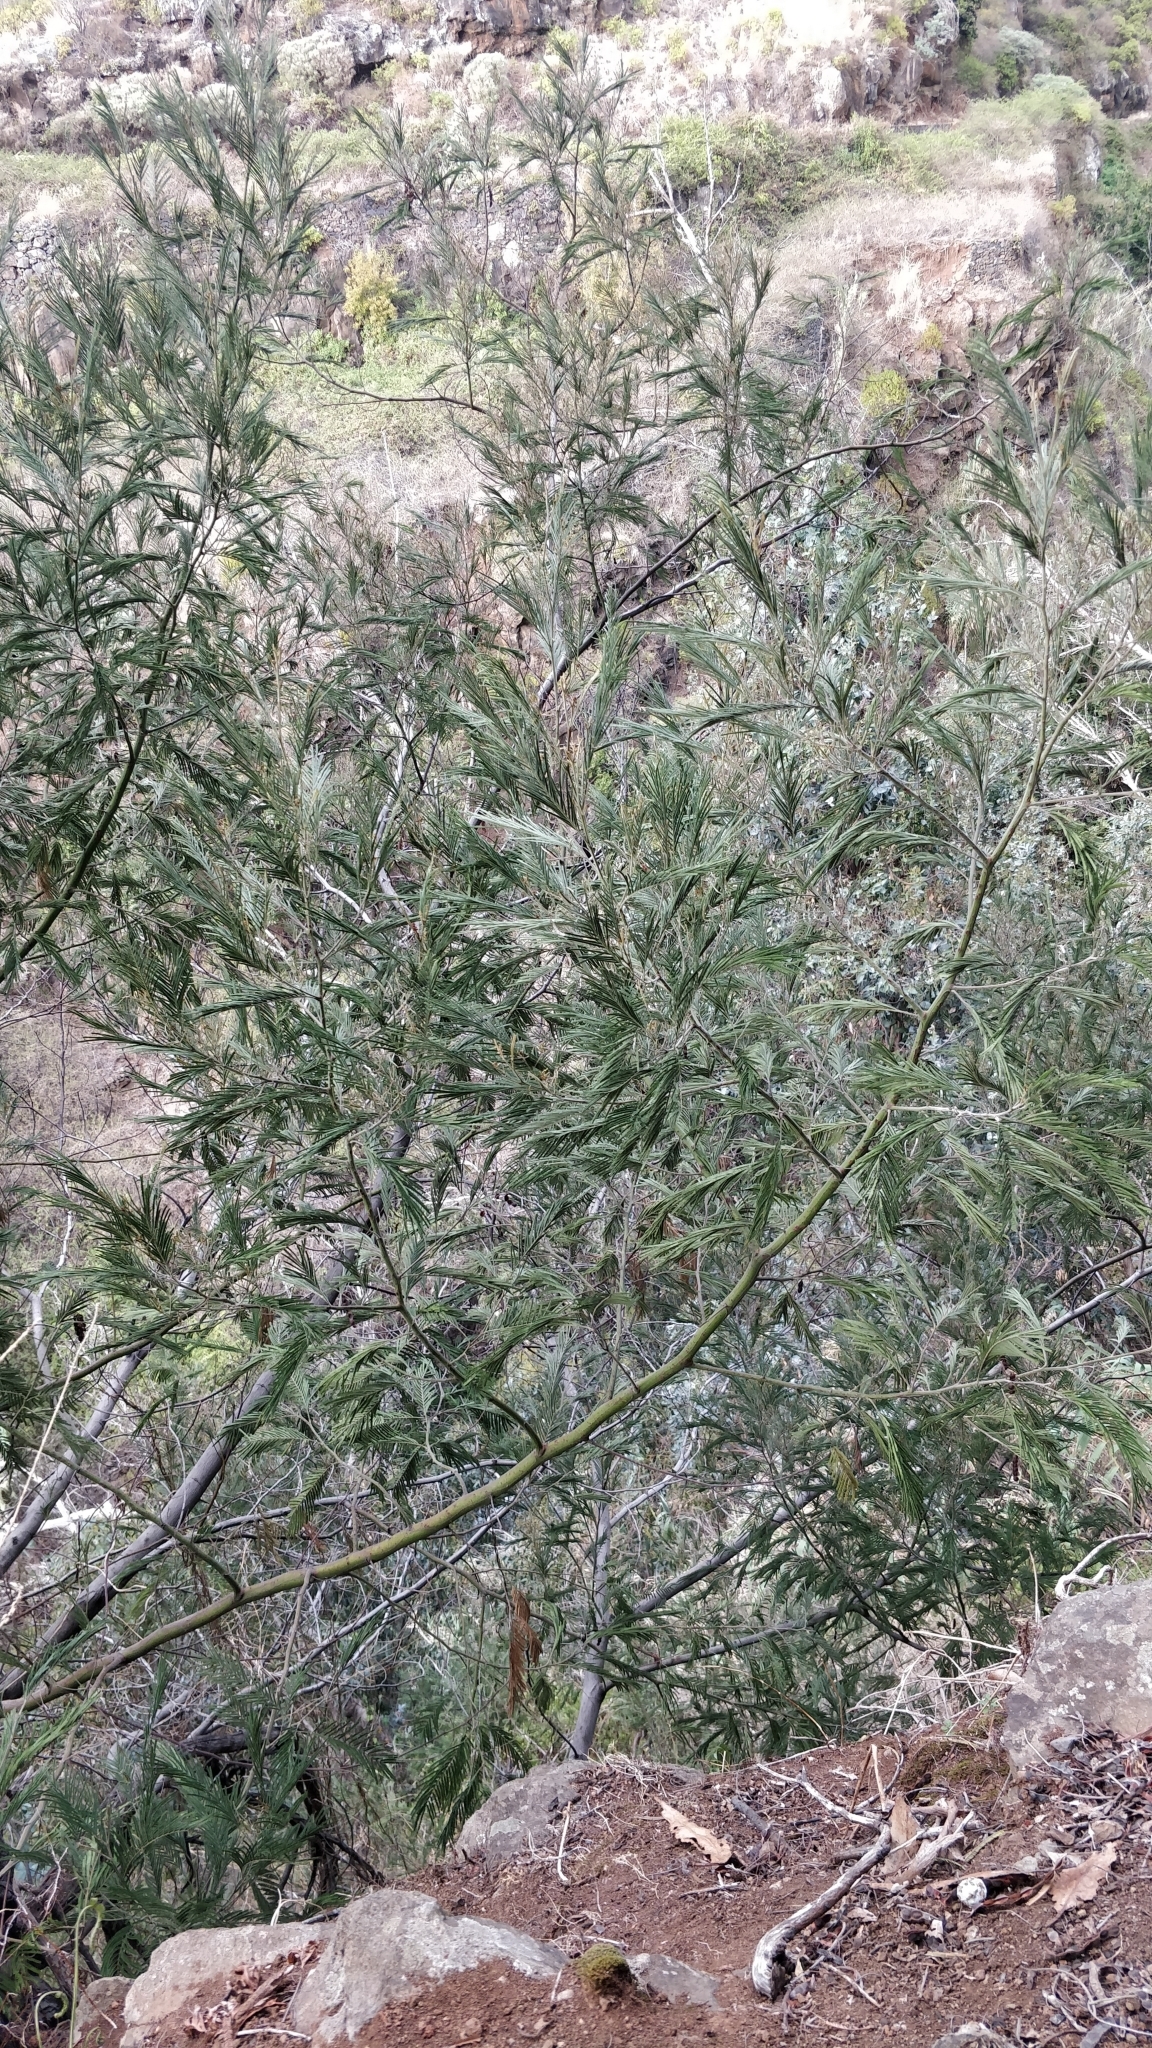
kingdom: Plantae
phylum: Tracheophyta
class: Magnoliopsida
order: Fabales
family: Fabaceae
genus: Acacia
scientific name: Acacia mearnsii
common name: Black wattle
